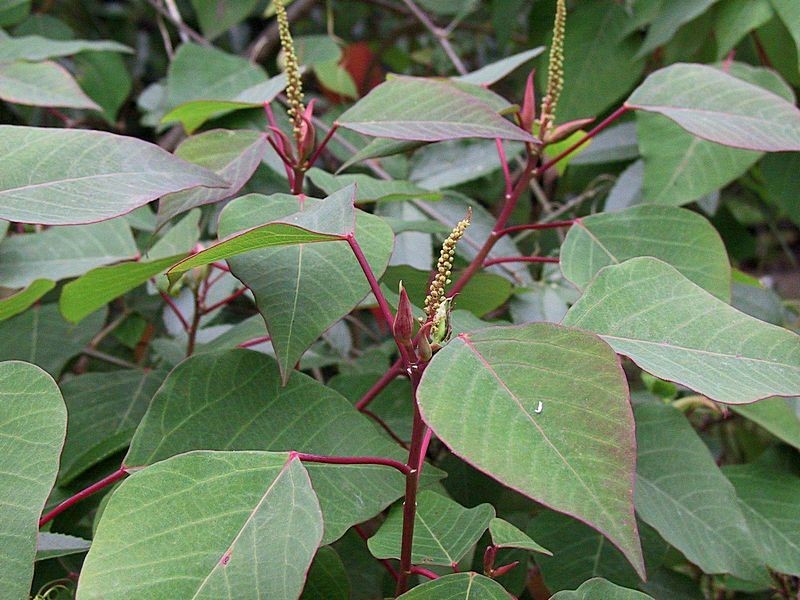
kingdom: Plantae
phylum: Tracheophyta
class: Magnoliopsida
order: Malpighiales
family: Euphorbiaceae
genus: Homalanthus
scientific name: Homalanthus populifolius
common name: Queensland poplar
